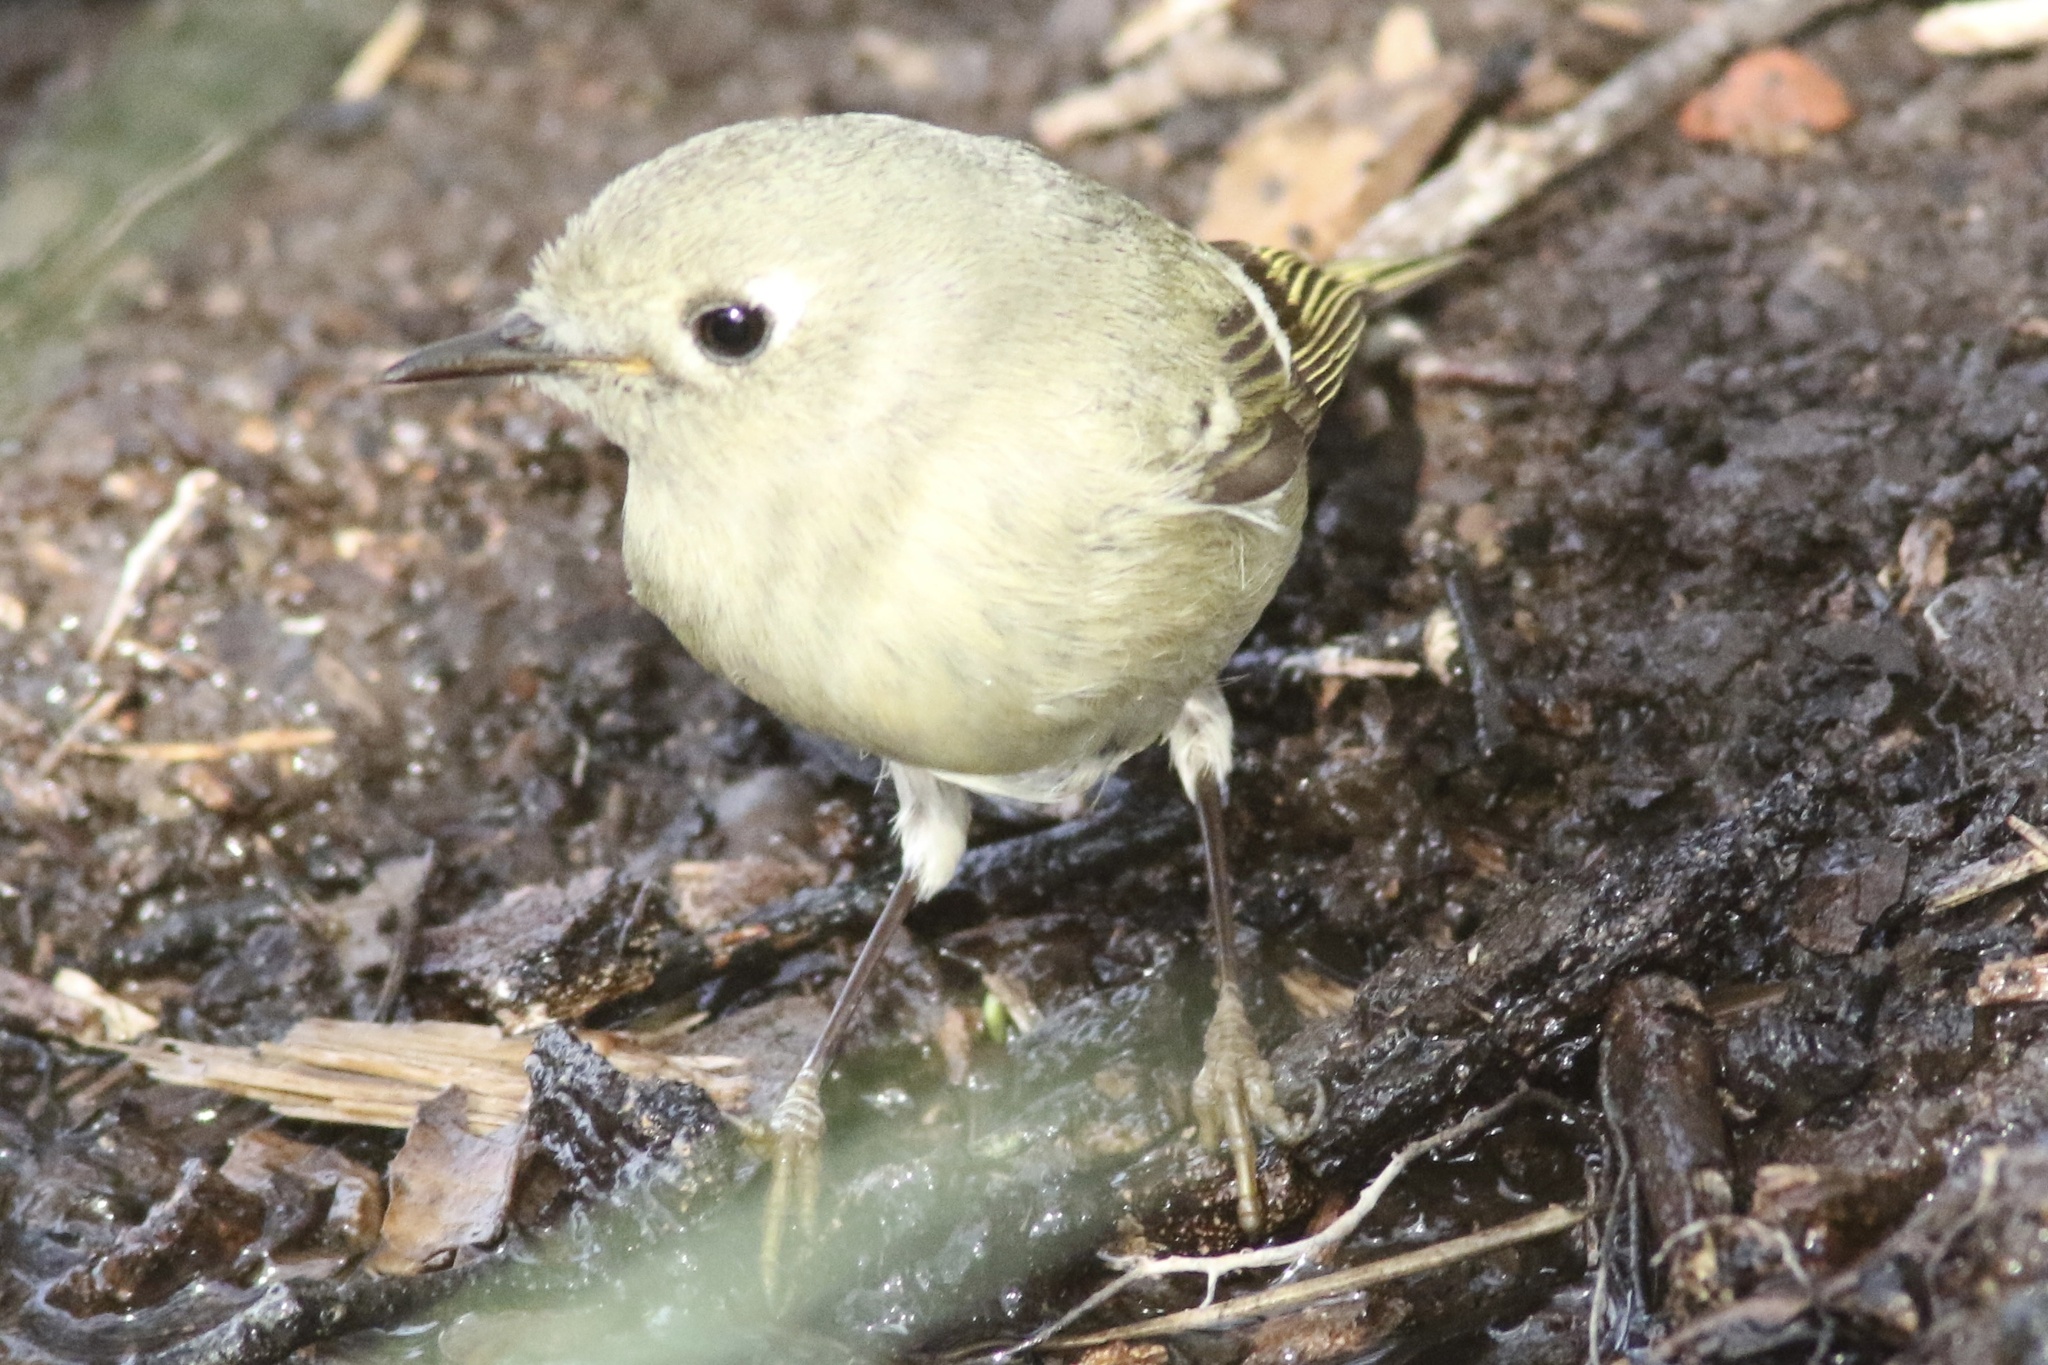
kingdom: Animalia
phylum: Chordata
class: Aves
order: Passeriformes
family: Regulidae
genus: Regulus
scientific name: Regulus calendula
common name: Ruby-crowned kinglet
